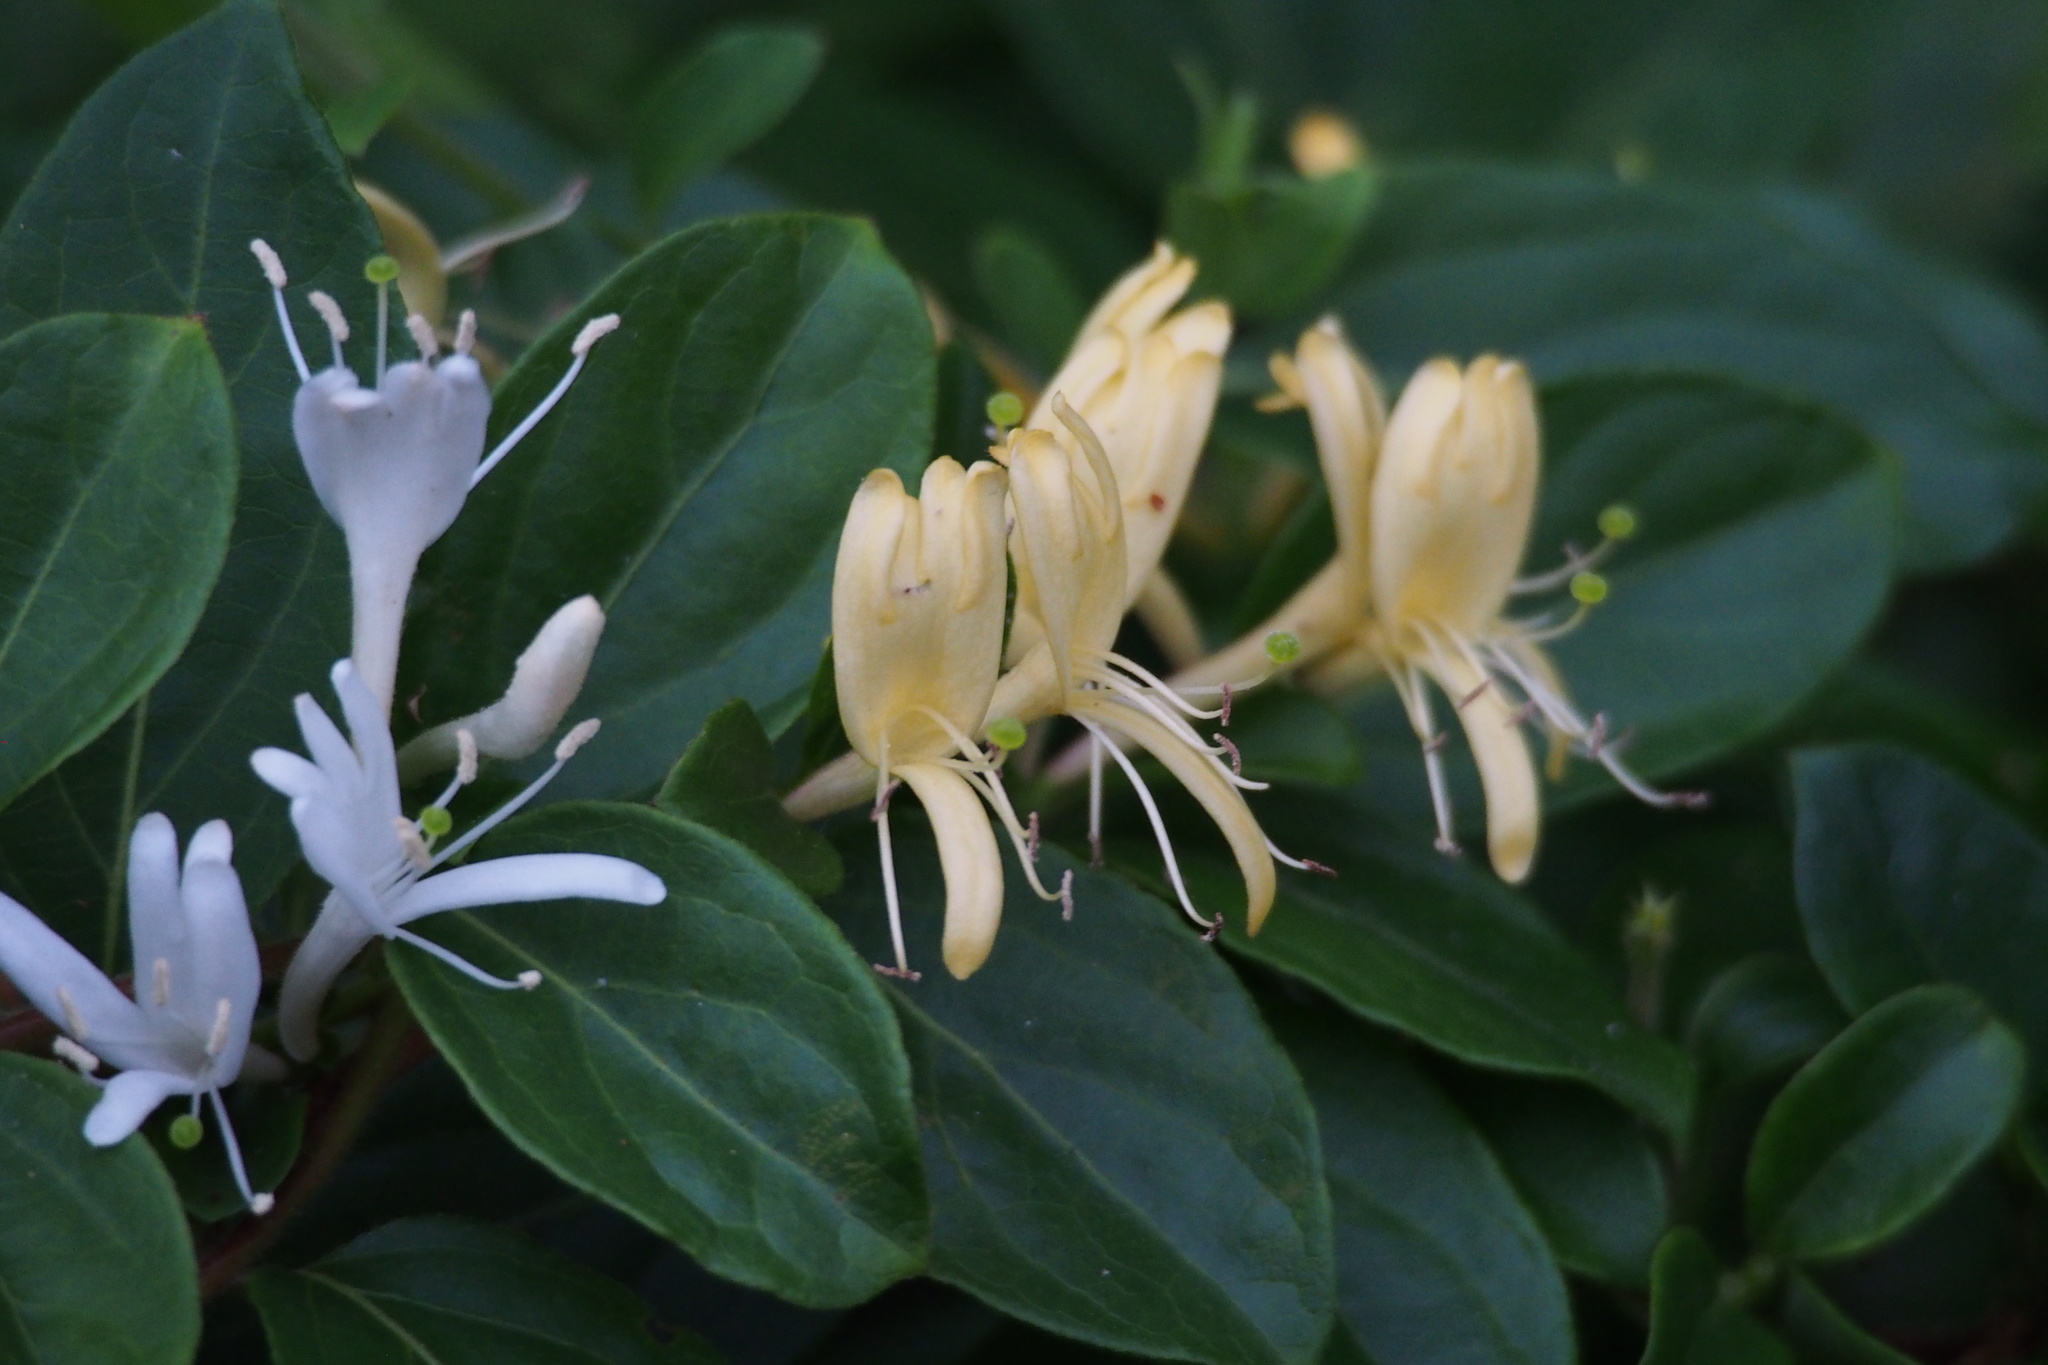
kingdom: Plantae
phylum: Tracheophyta
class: Magnoliopsida
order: Dipsacales
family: Caprifoliaceae
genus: Lonicera
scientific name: Lonicera japonica
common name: Japanese honeysuckle
